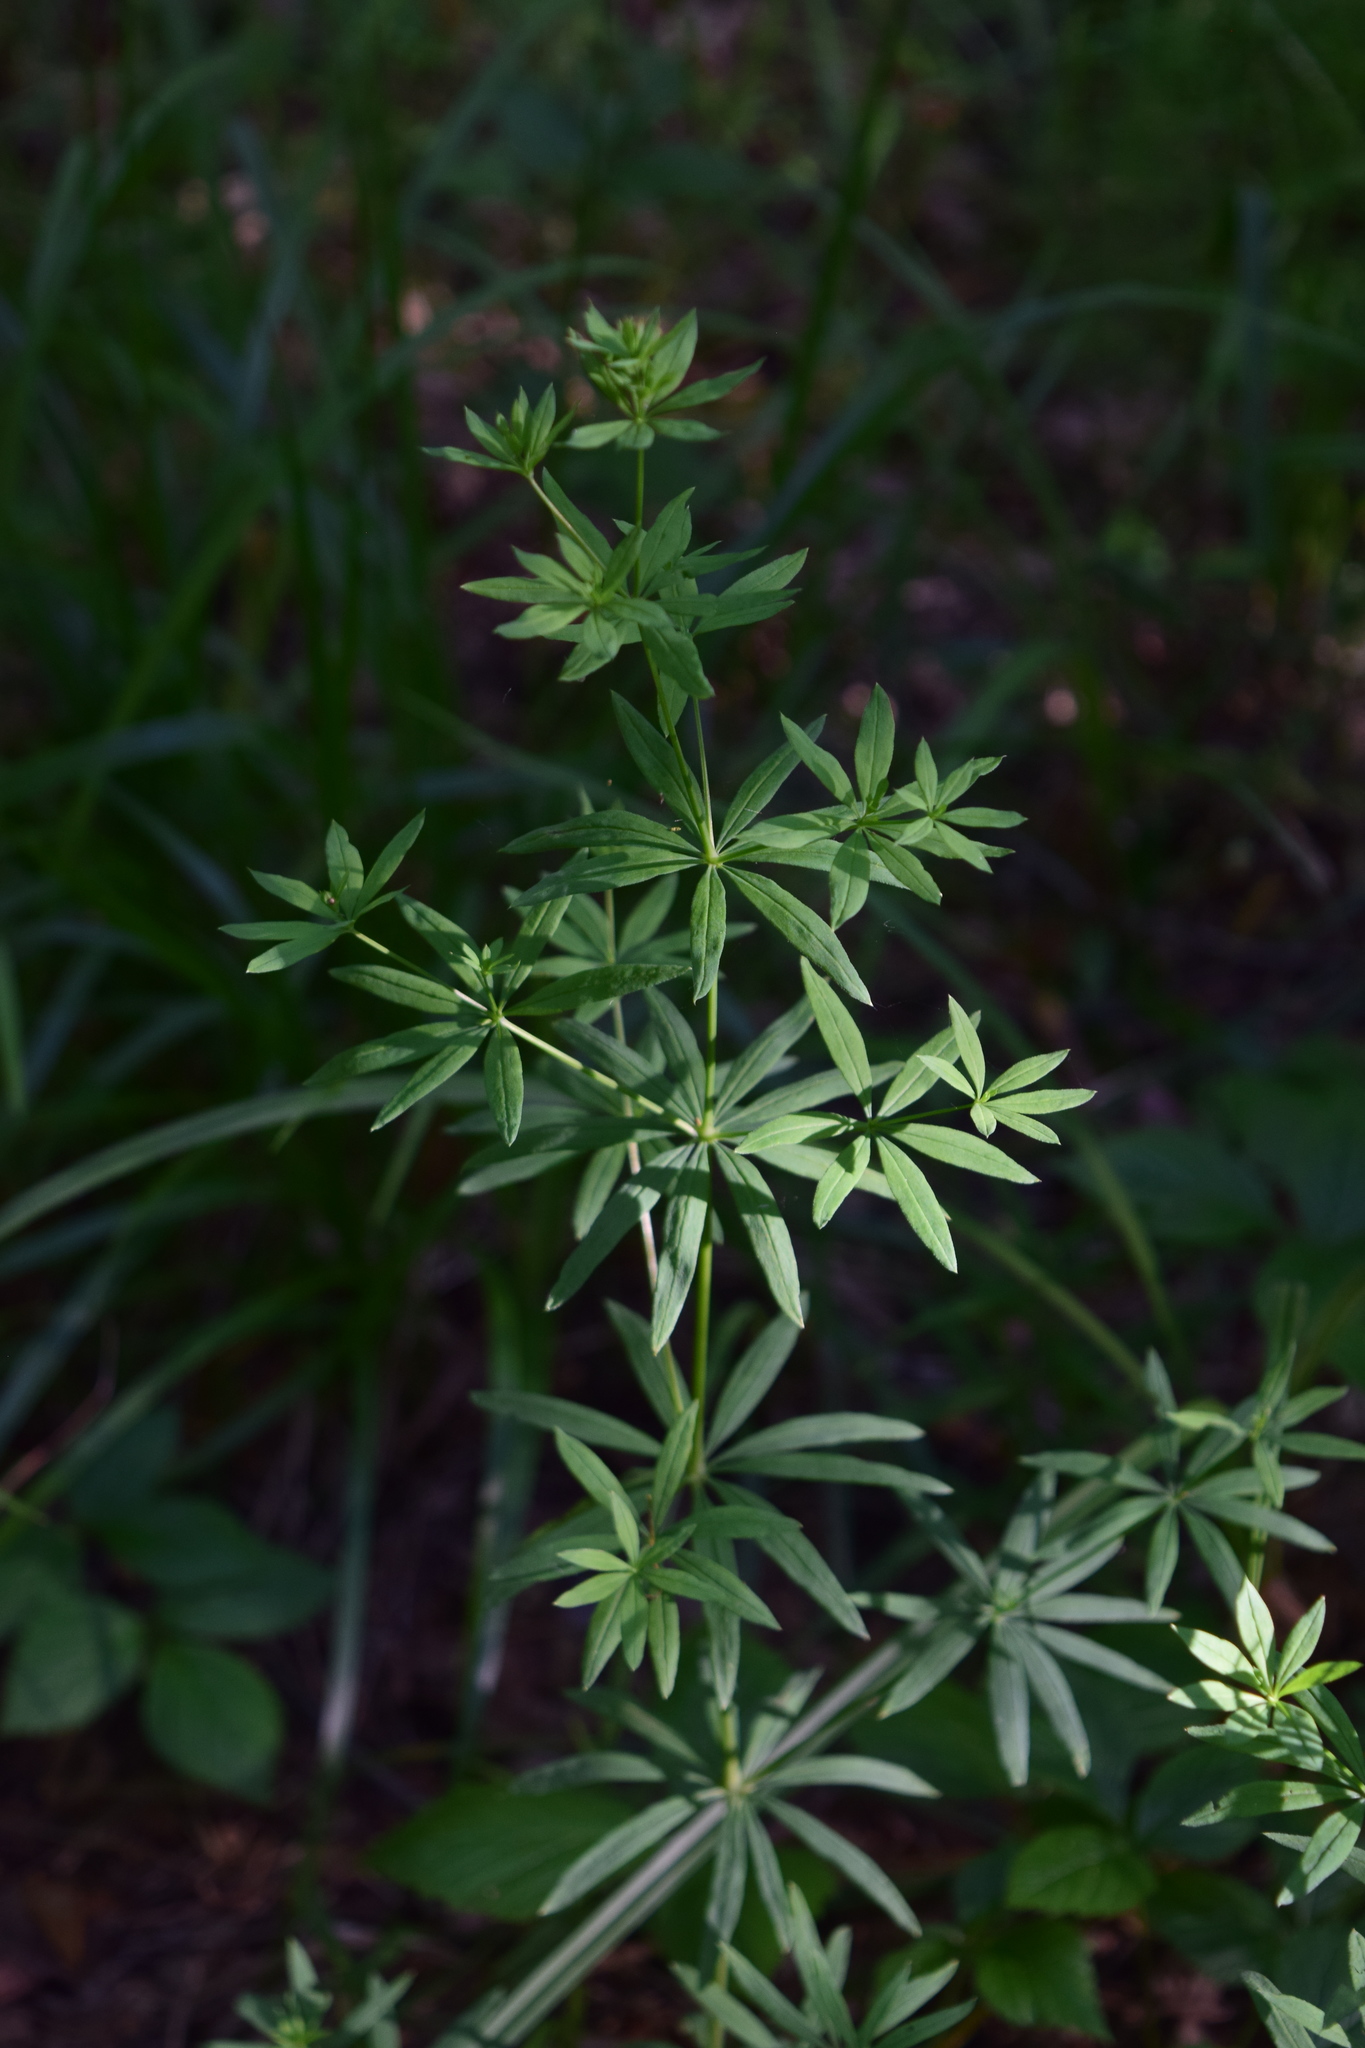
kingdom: Plantae
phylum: Tracheophyta
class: Magnoliopsida
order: Gentianales
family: Rubiaceae
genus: Galium
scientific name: Galium intermedium
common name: Bedstraw
